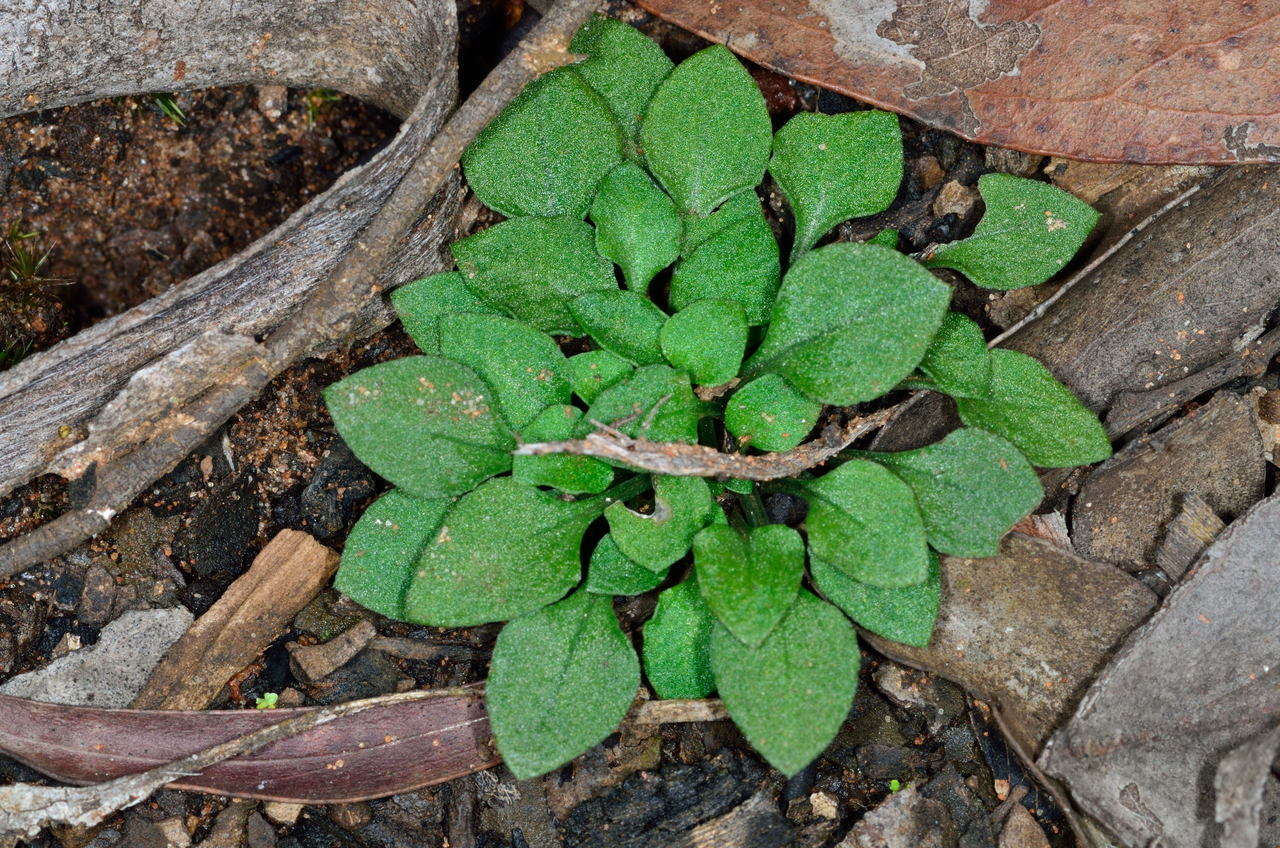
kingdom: Plantae
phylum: Tracheophyta
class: Liliopsida
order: Asparagales
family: Orchidaceae
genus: Pterostylis
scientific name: Pterostylis parviflora
